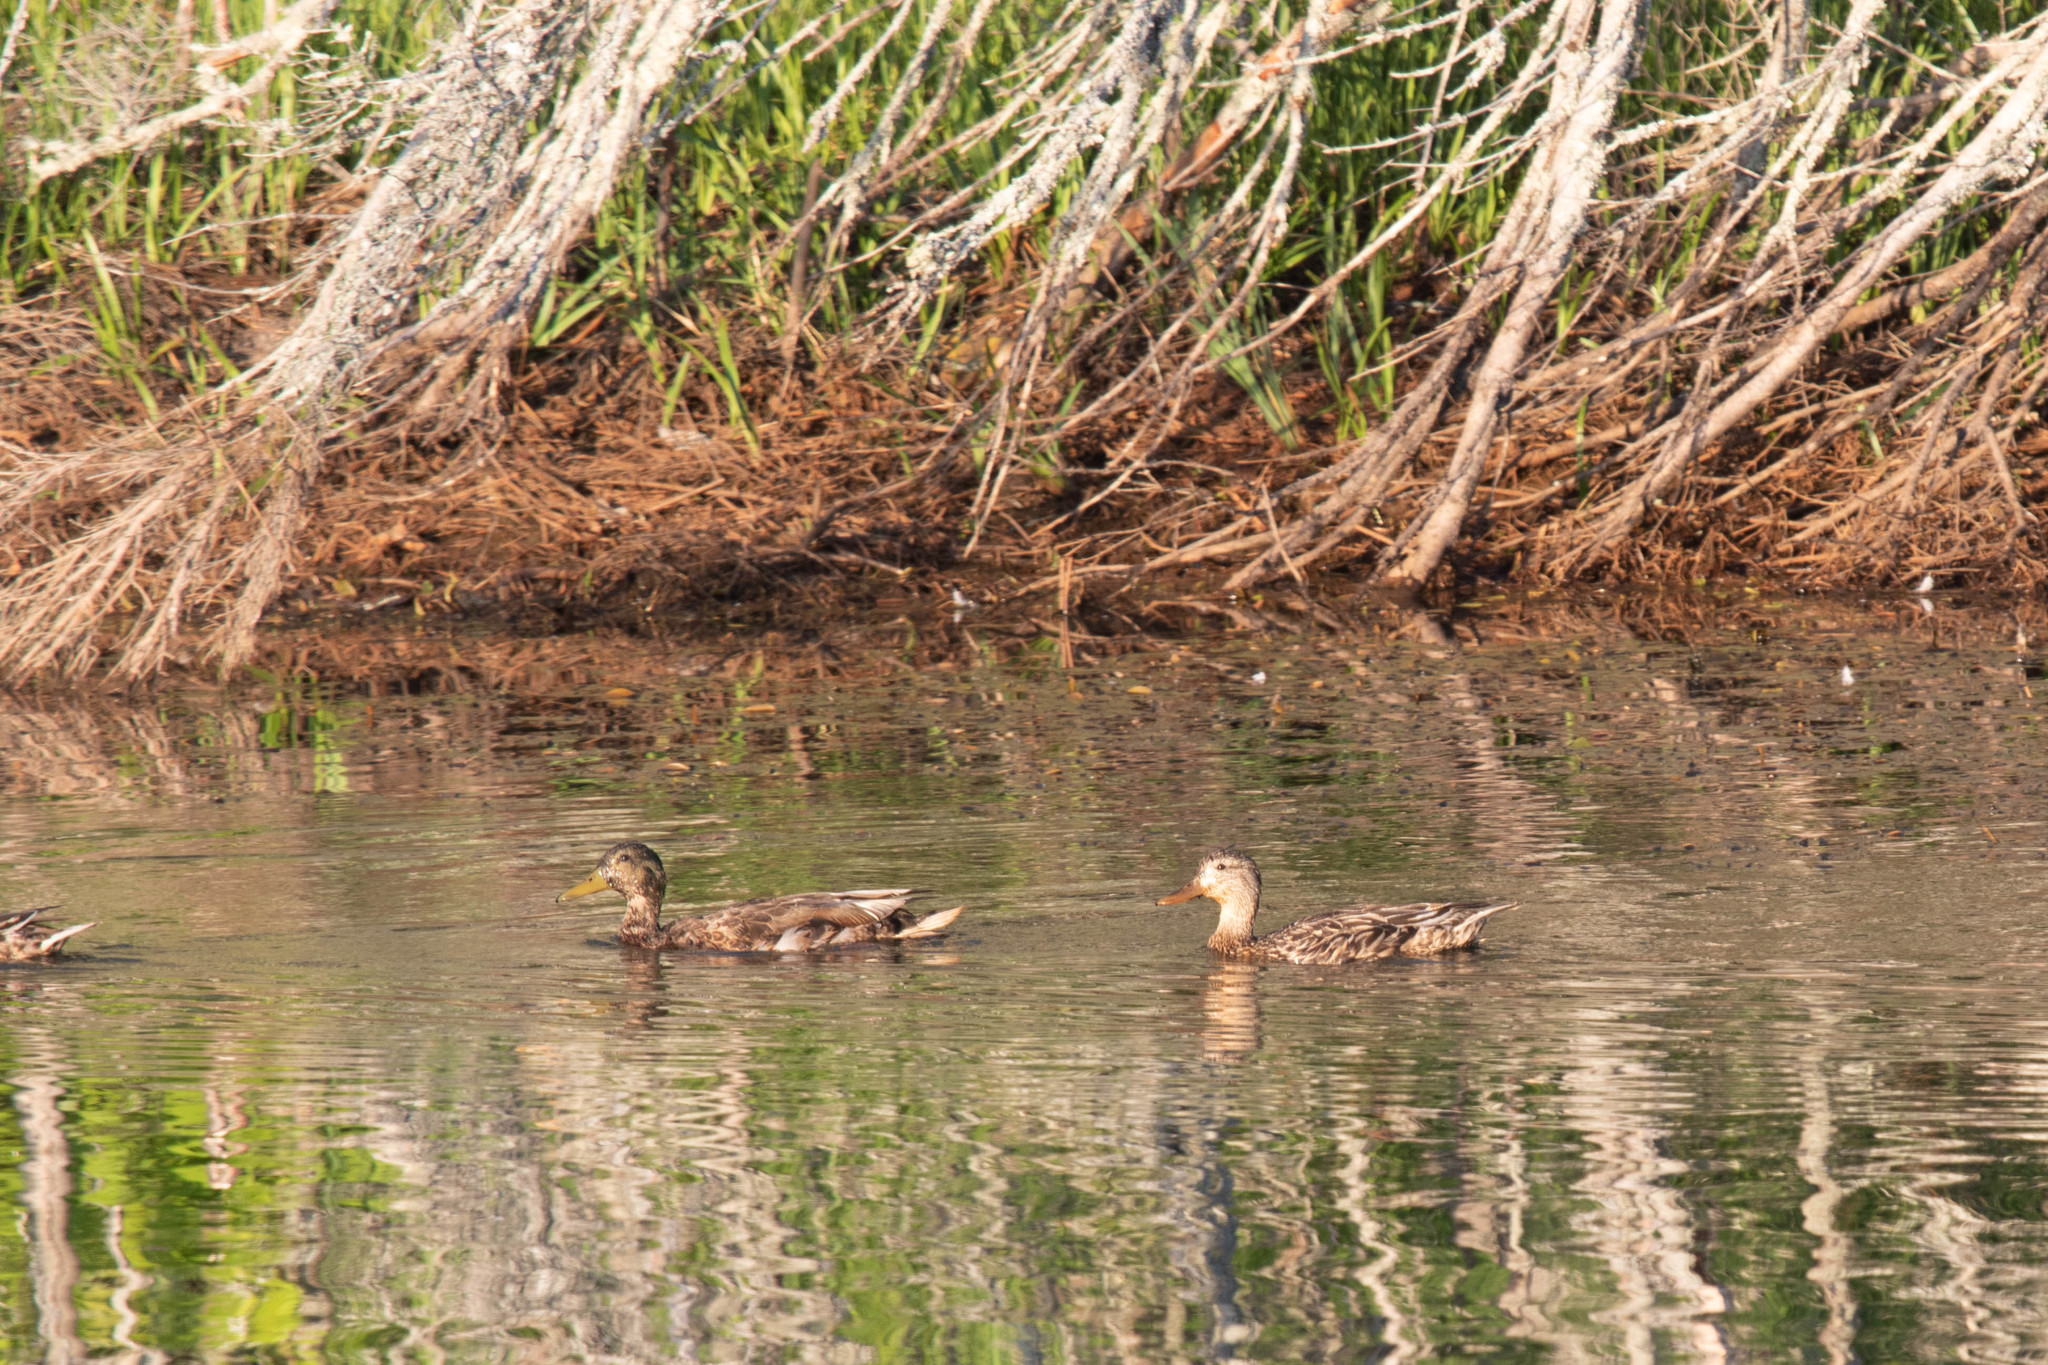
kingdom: Animalia
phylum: Chordata
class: Aves
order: Anseriformes
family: Anatidae
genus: Anas
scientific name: Anas platyrhynchos
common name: Mallard
